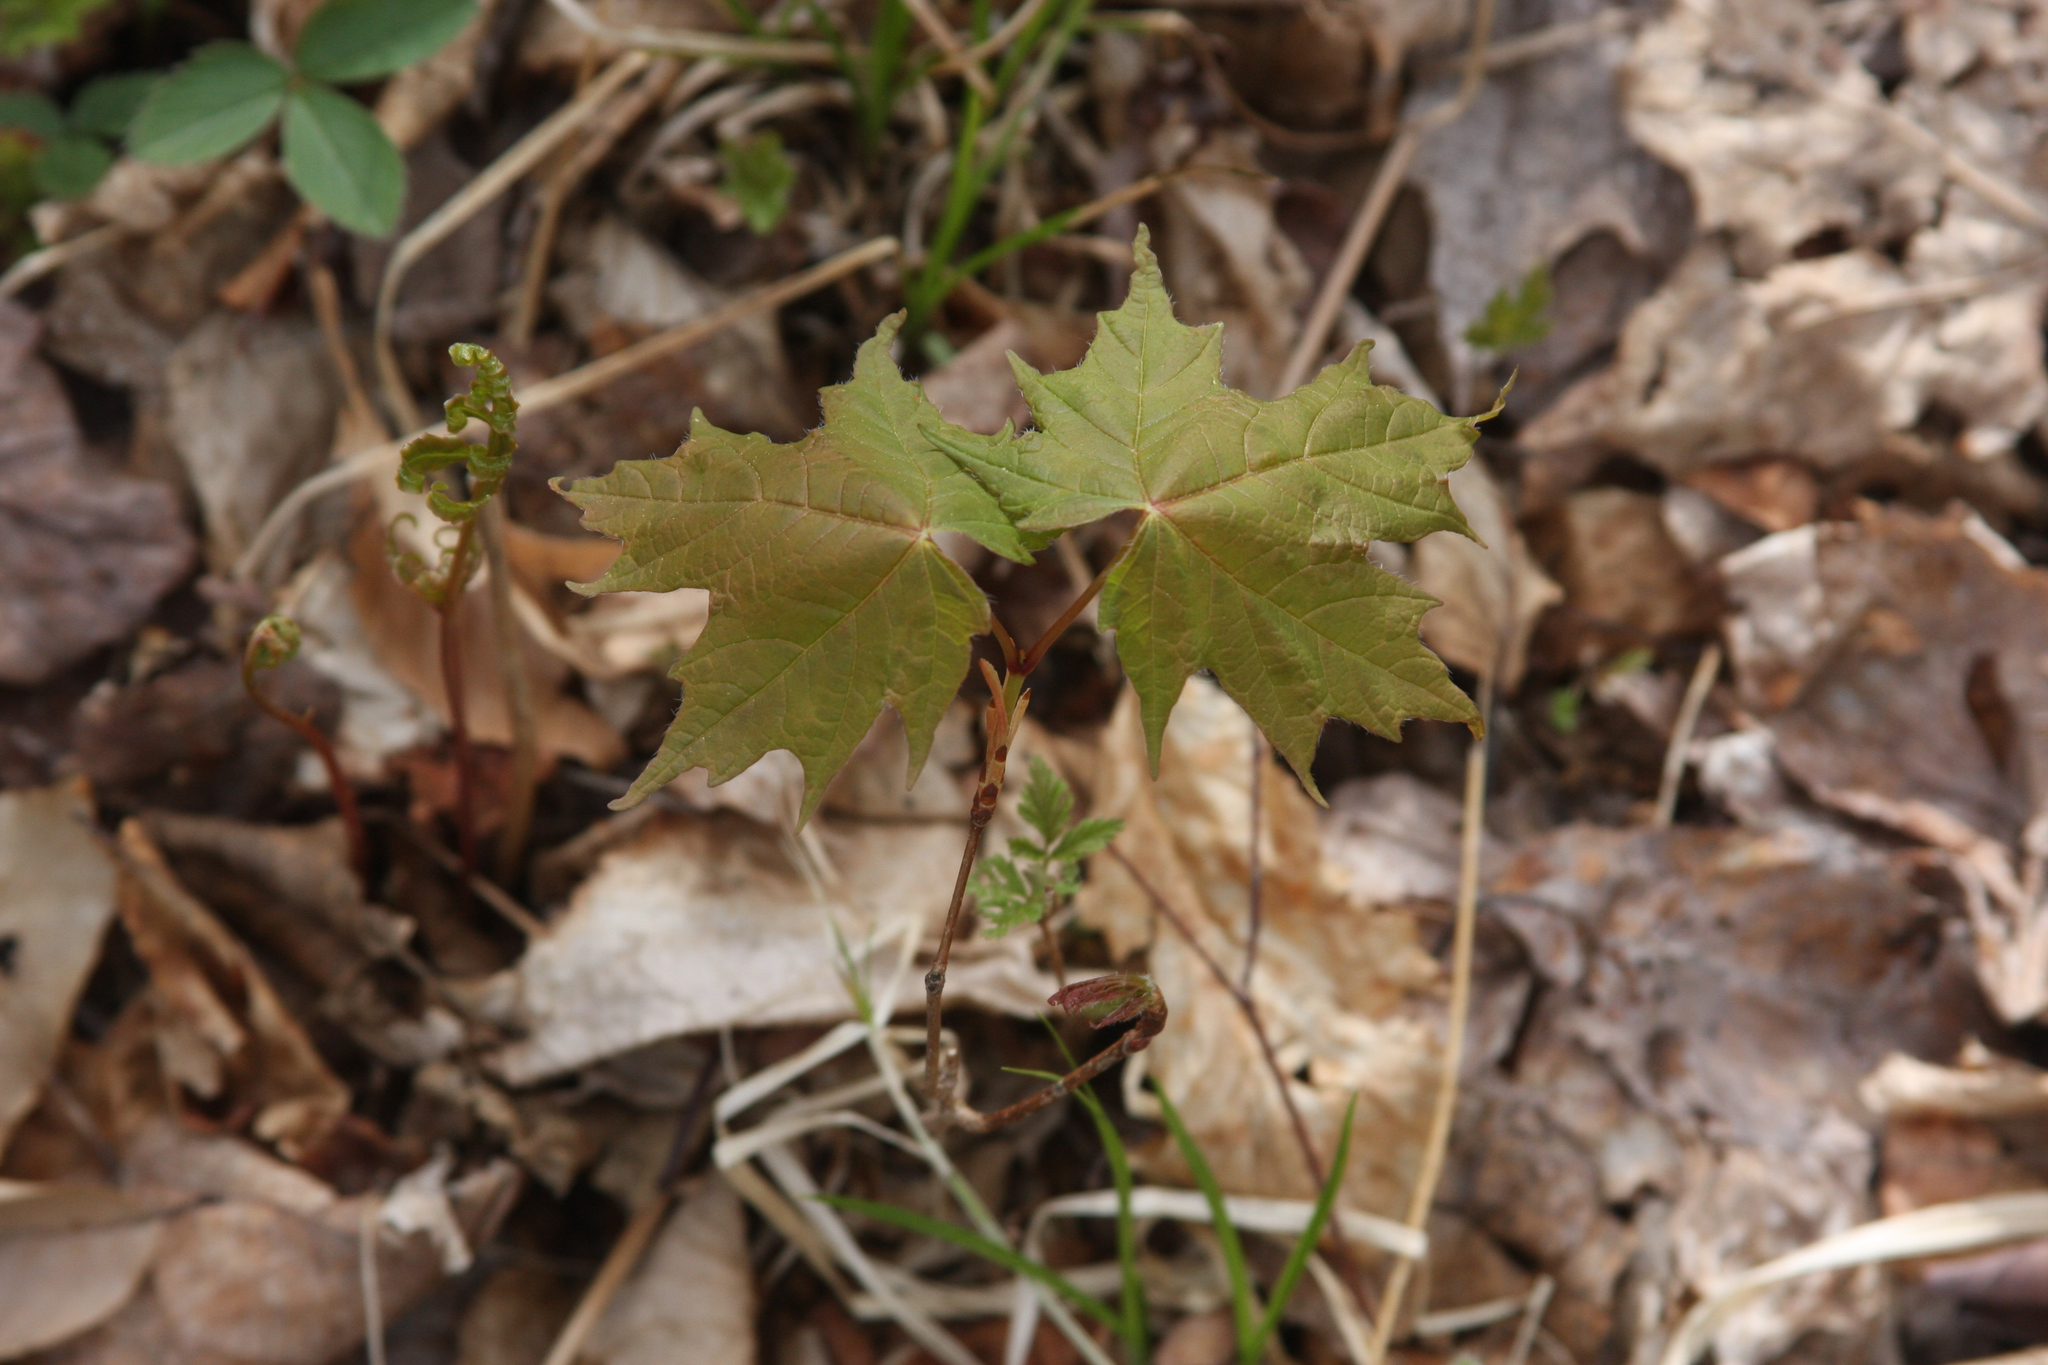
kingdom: Plantae
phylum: Tracheophyta
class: Magnoliopsida
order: Sapindales
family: Sapindaceae
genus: Acer
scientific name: Acer saccharum
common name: Sugar maple
